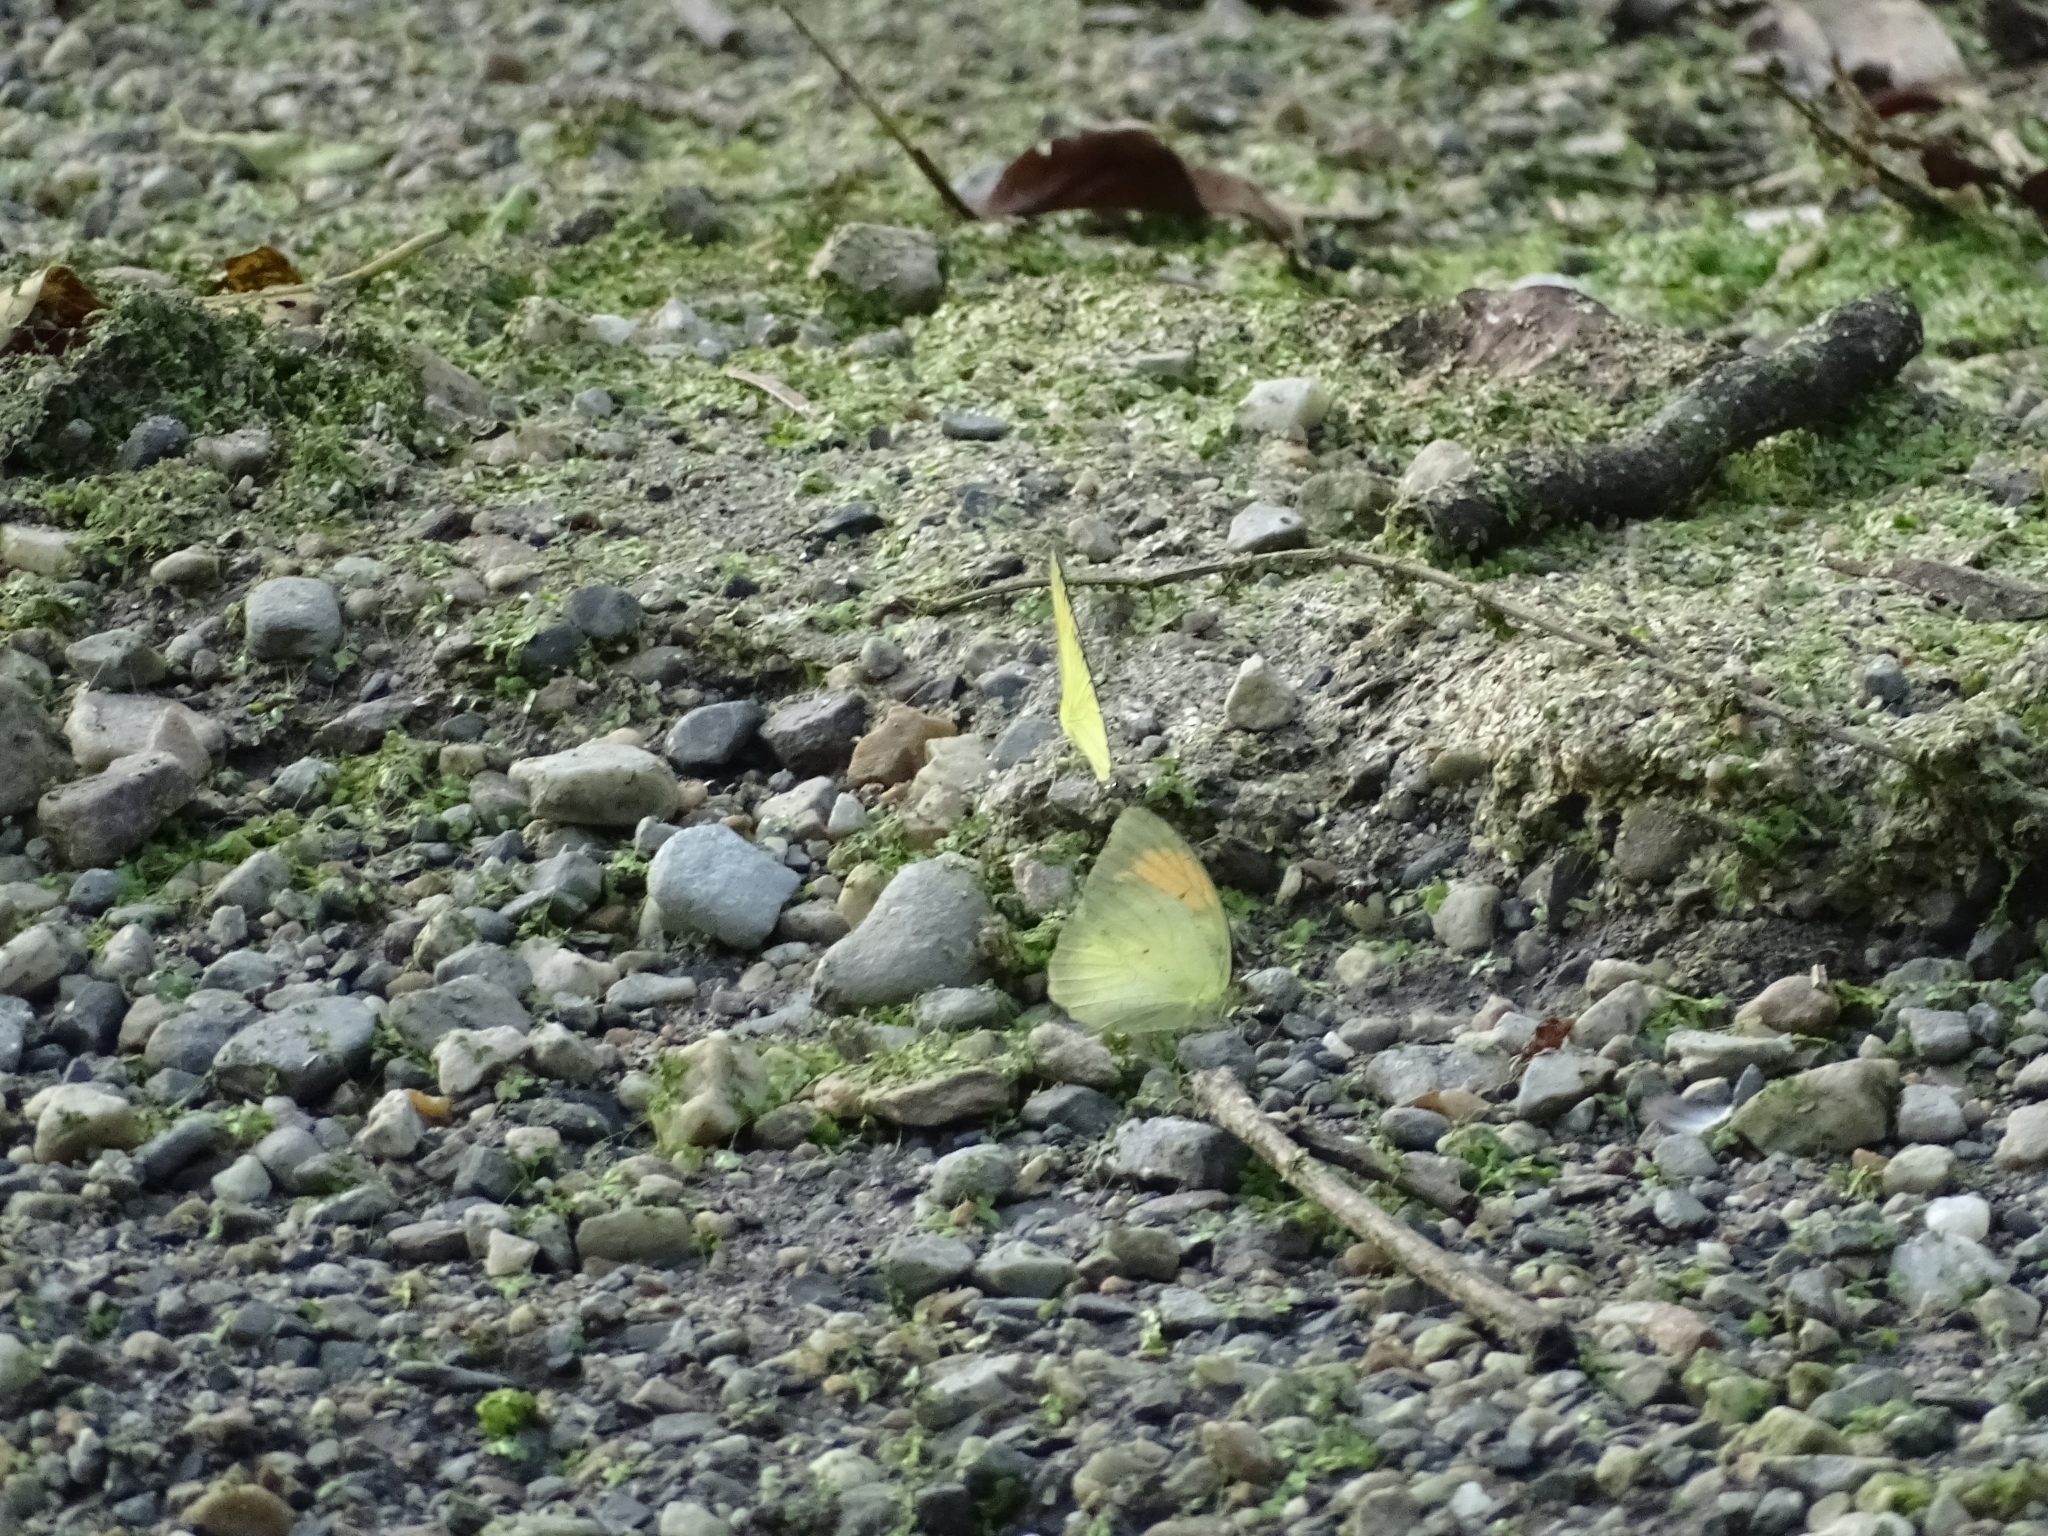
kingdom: Animalia
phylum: Arthropoda
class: Insecta
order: Lepidoptera
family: Pieridae
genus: Ixias
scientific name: Ixias pyrene
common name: Yellow orange tip
